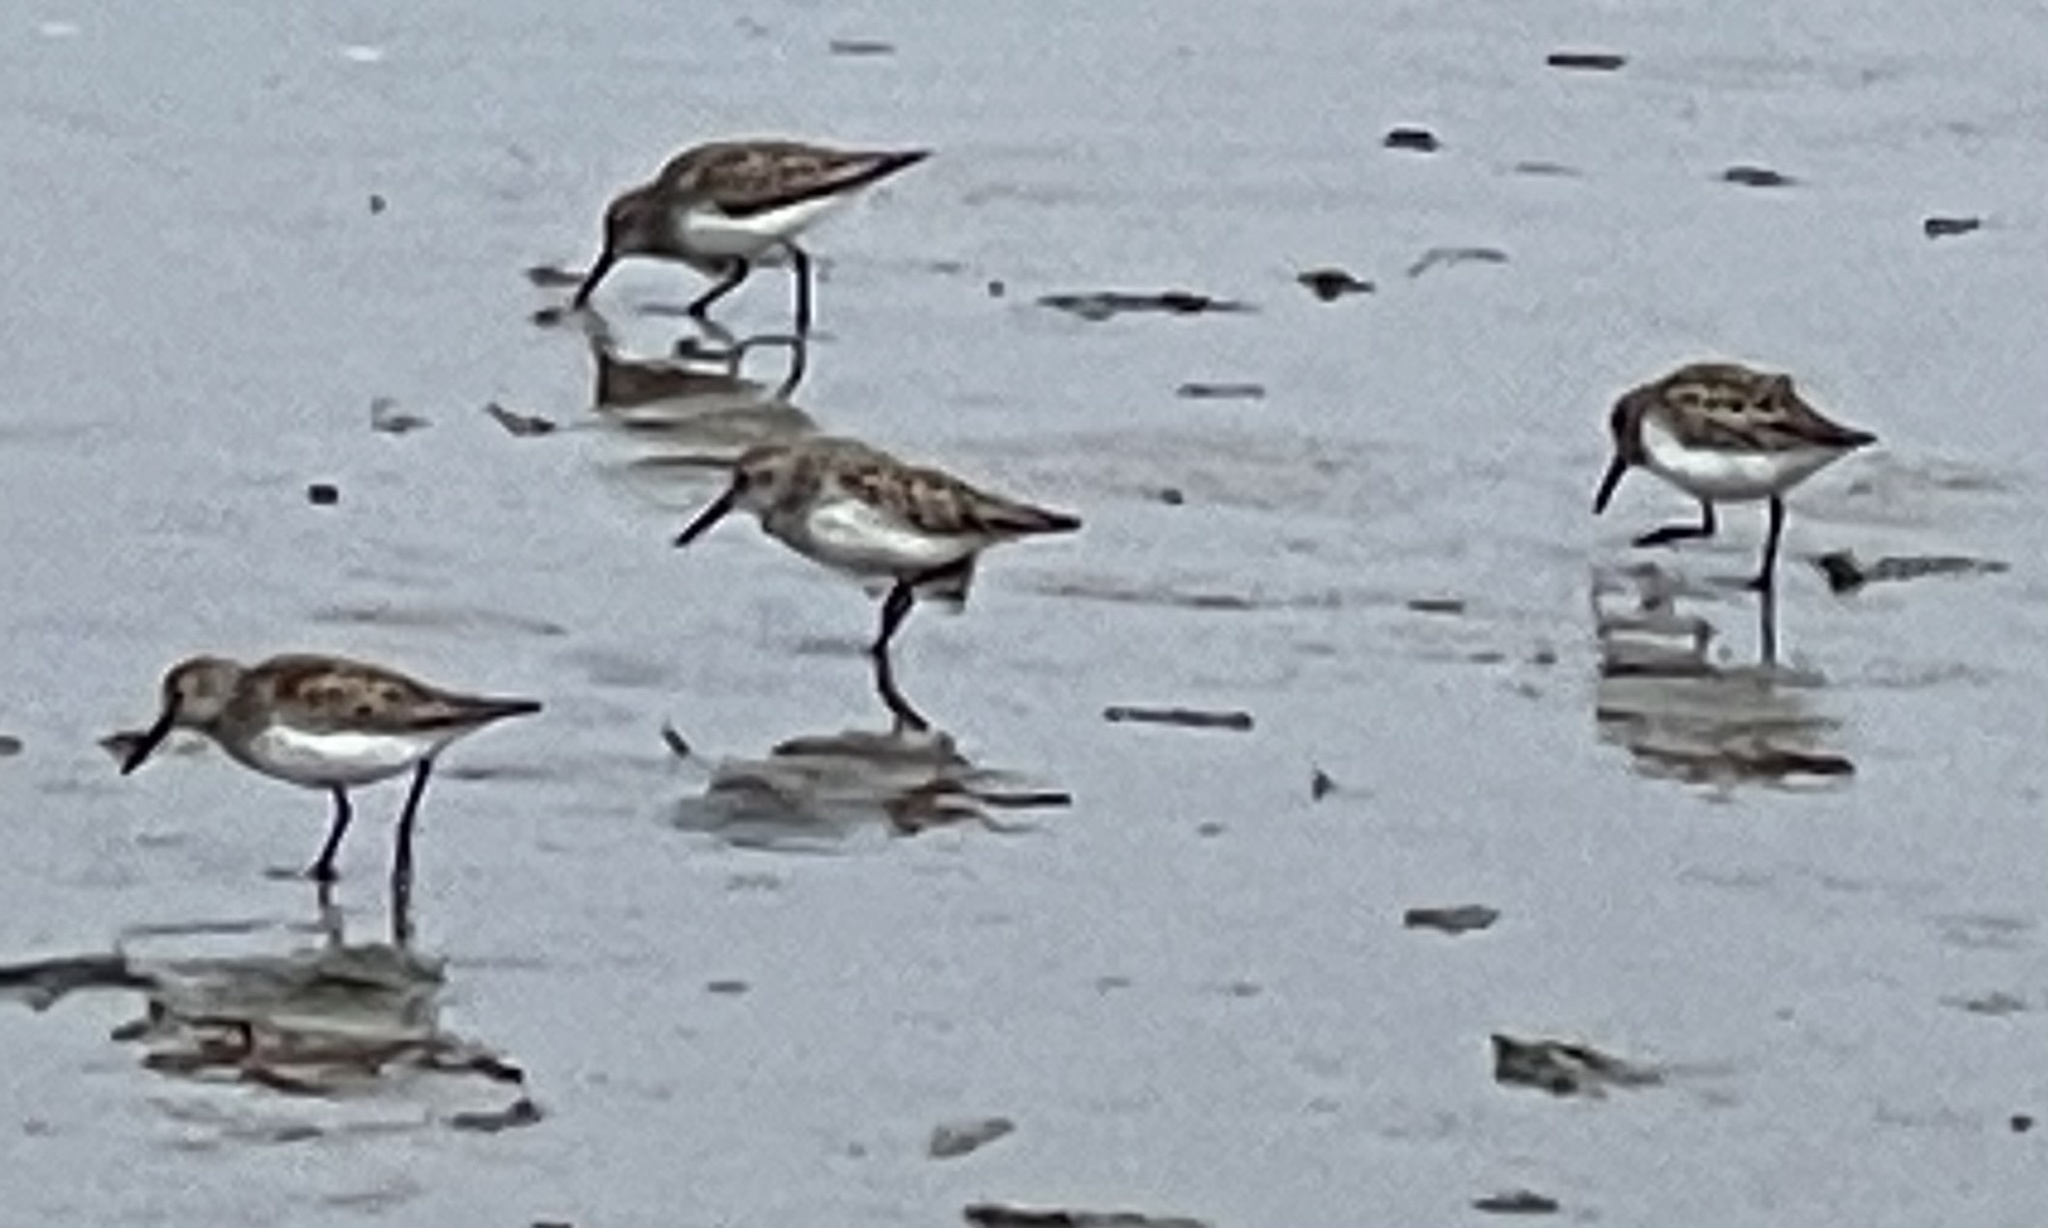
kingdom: Animalia
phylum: Chordata
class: Aves
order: Charadriiformes
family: Scolopacidae
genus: Calidris
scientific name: Calidris mauri
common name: Western sandpiper
